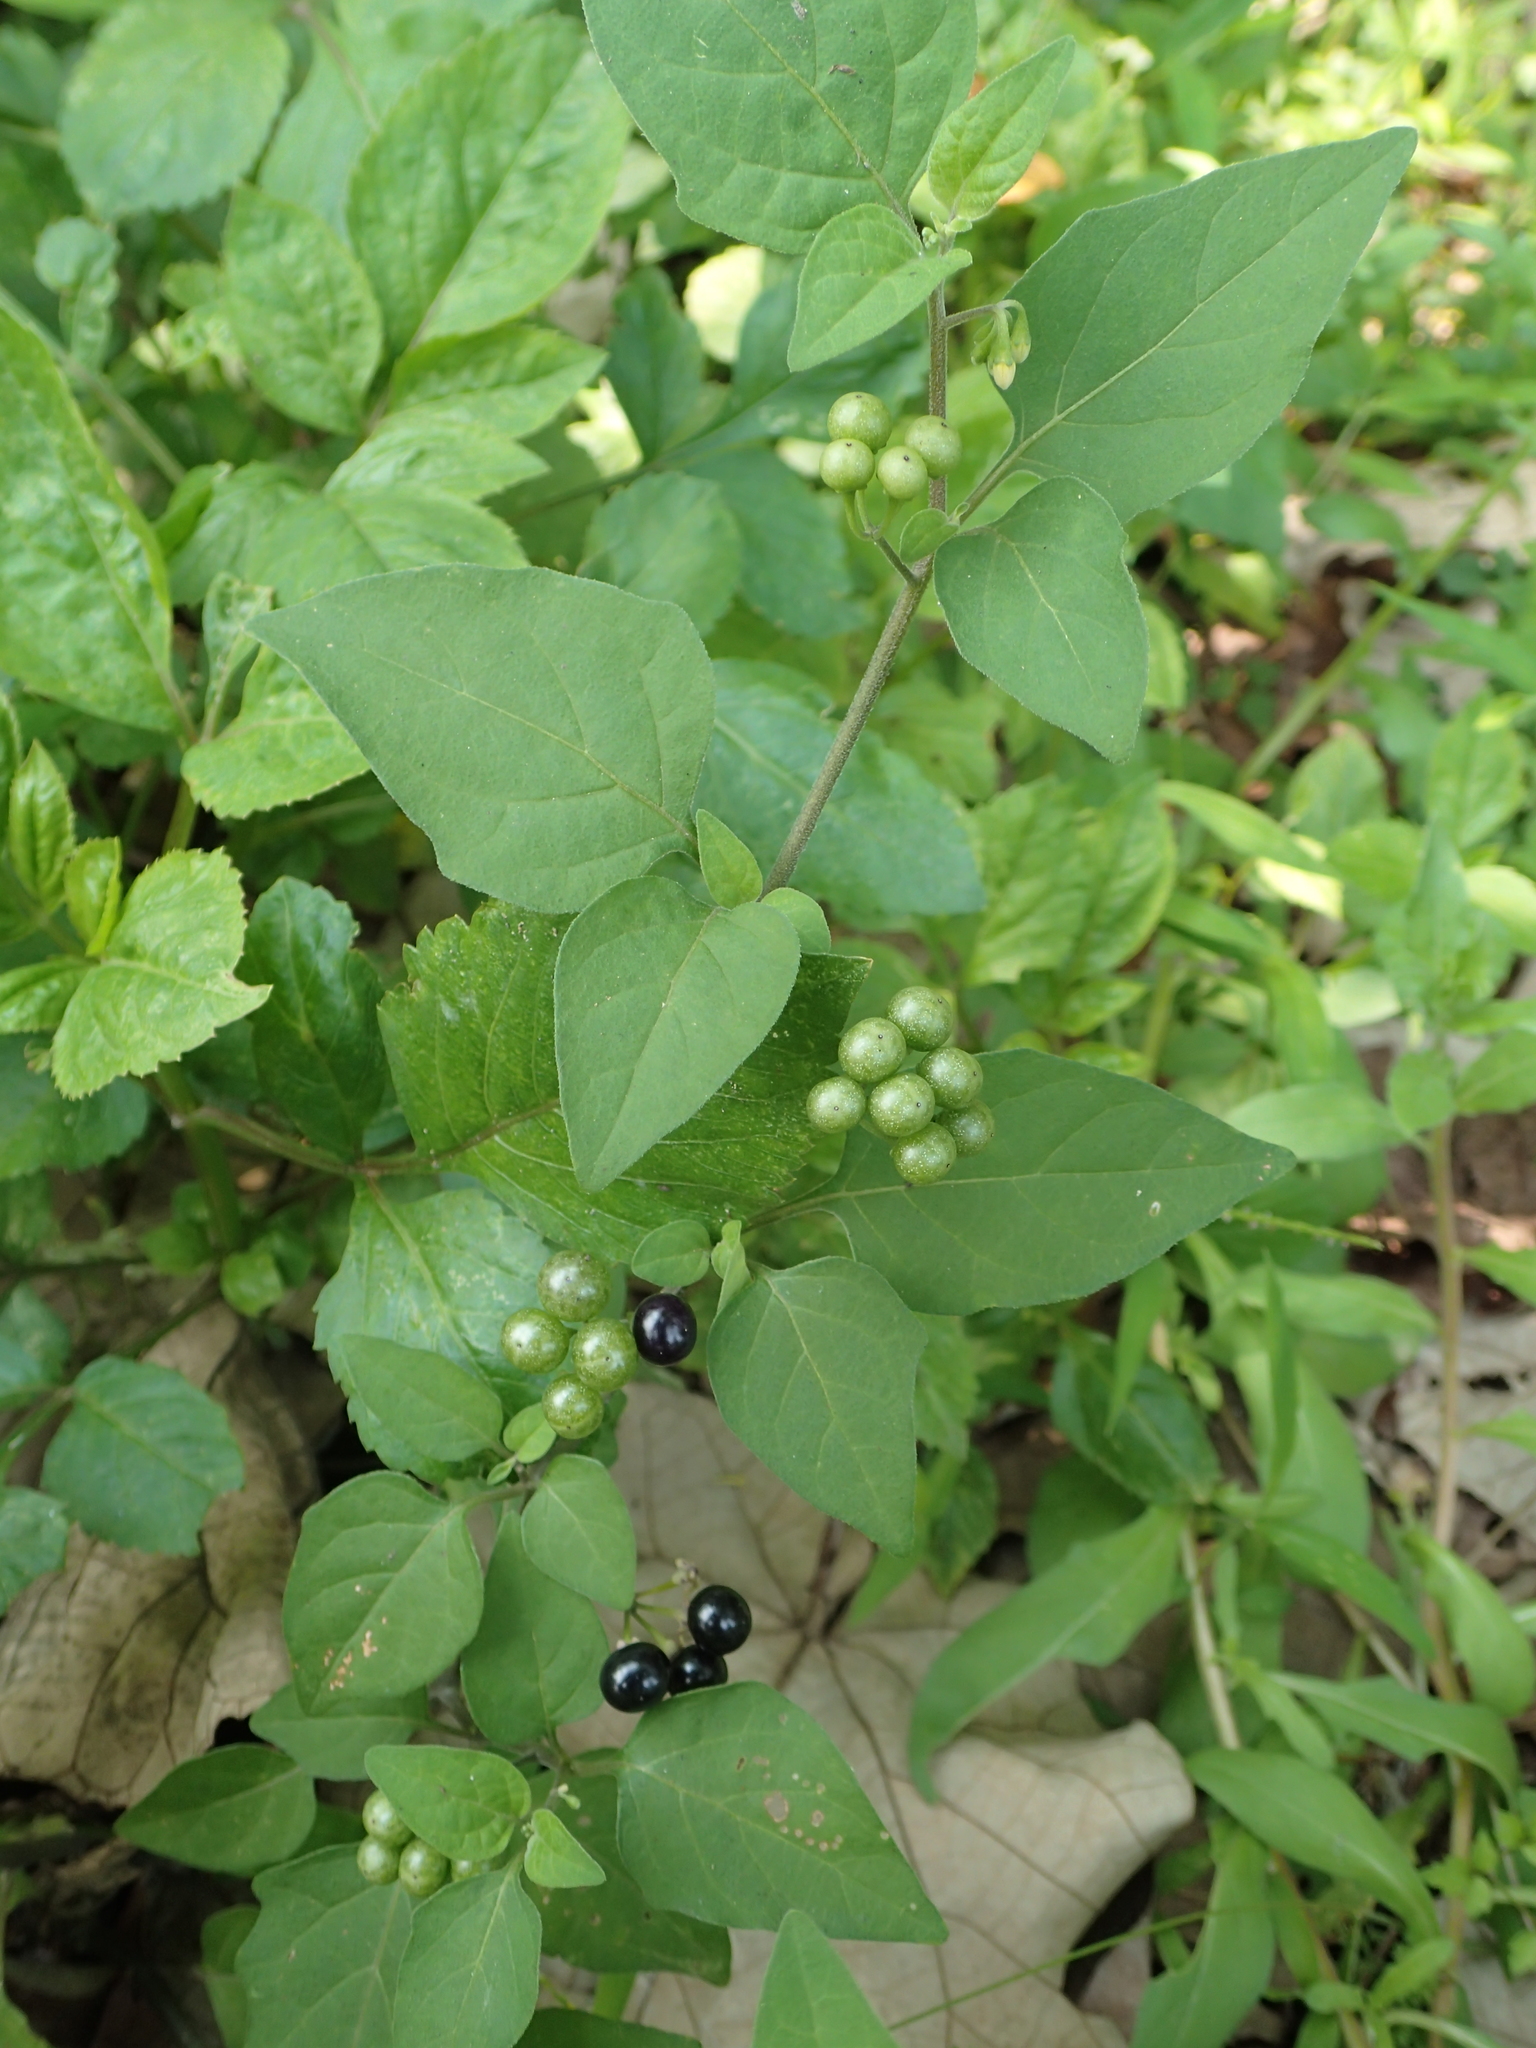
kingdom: Plantae
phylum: Tracheophyta
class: Magnoliopsida
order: Solanales
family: Solanaceae
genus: Solanum
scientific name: Solanum scabrum
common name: Garden-huckleberry
